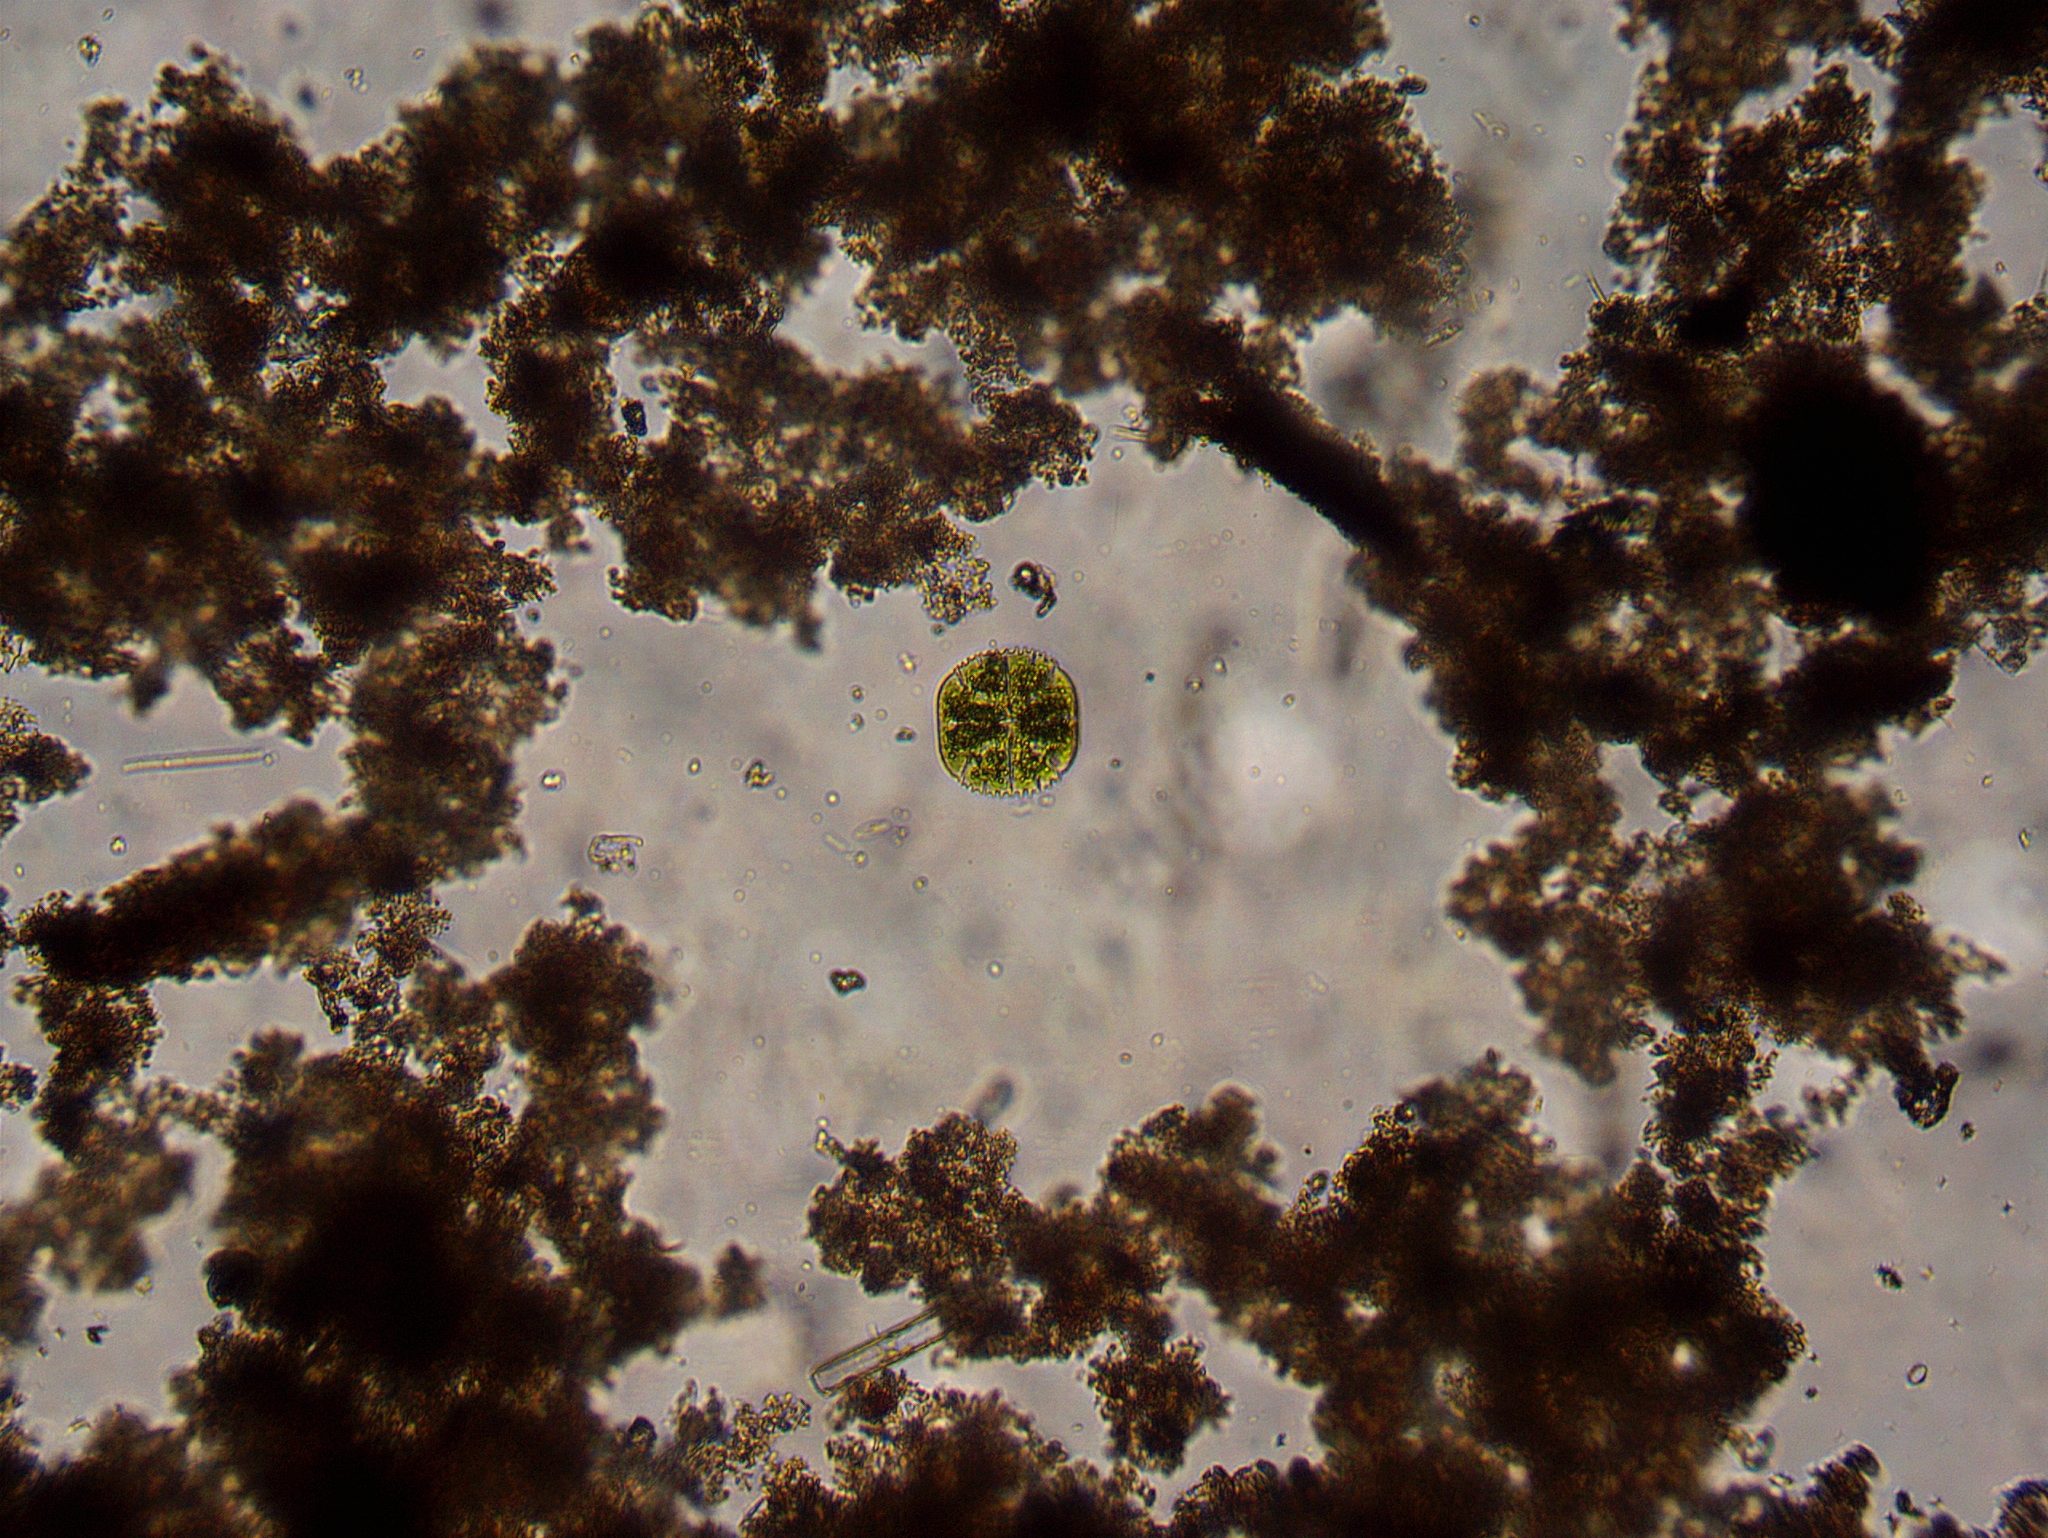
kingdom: Plantae
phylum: Charophyta
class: Conjugatophyceae
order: Desmidiales
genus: Micrasterias
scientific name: Micrasterias truncata
